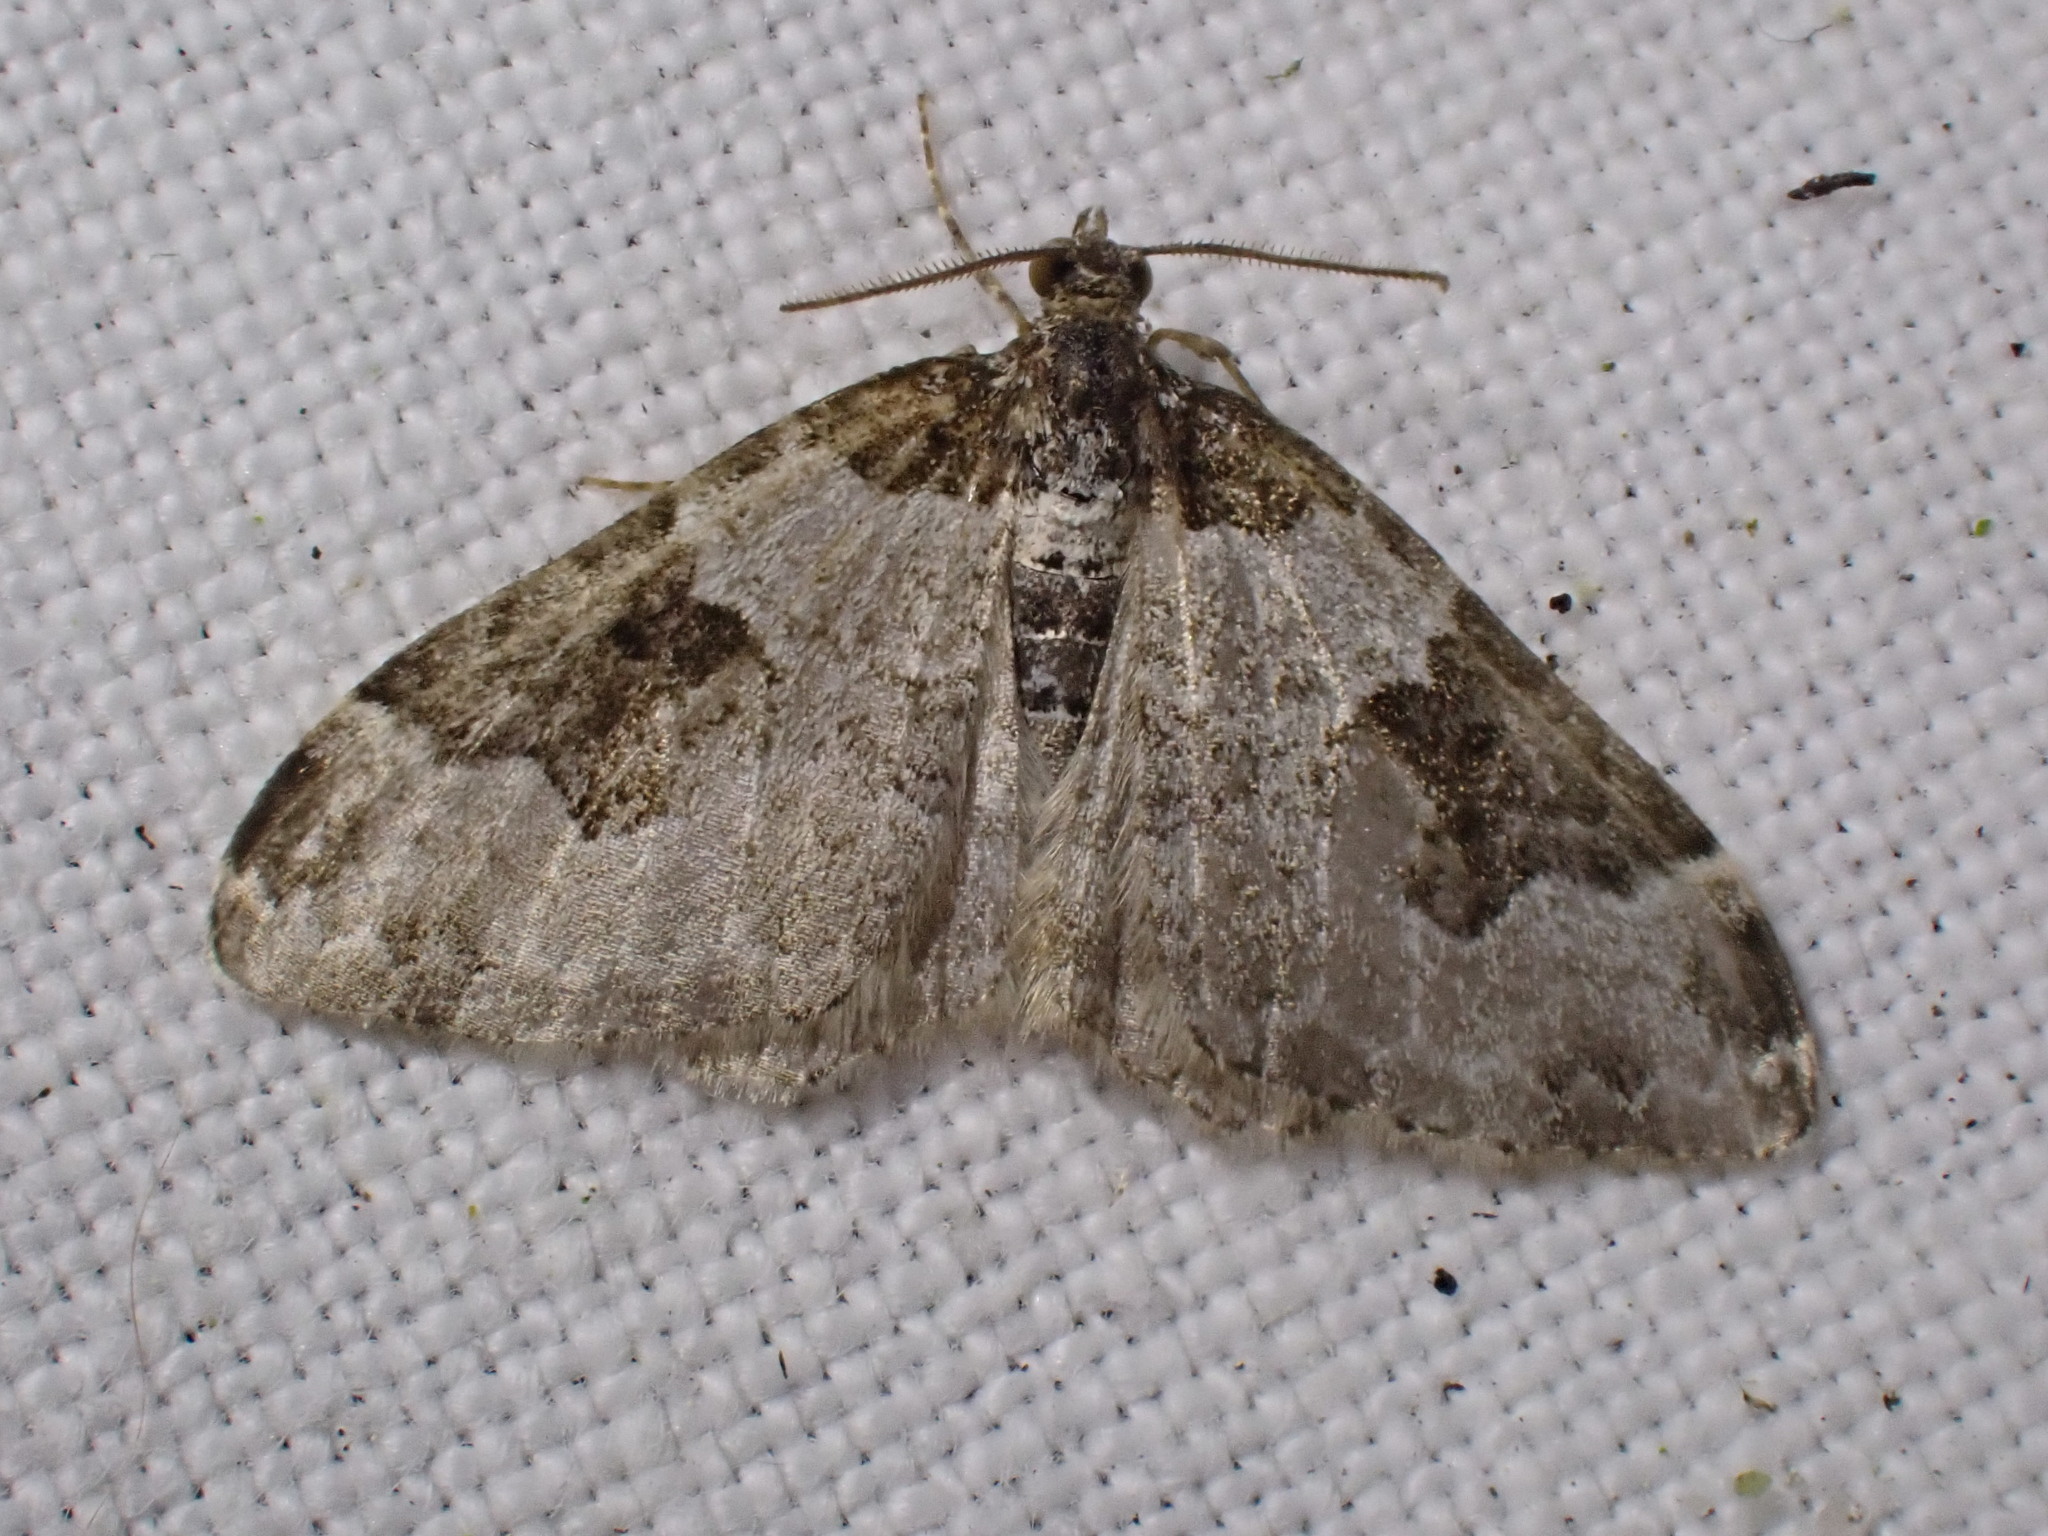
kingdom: Animalia
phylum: Arthropoda
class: Insecta
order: Lepidoptera
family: Geometridae
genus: Xanthorhoe
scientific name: Xanthorhoe fluctuata
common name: Garden carpet
